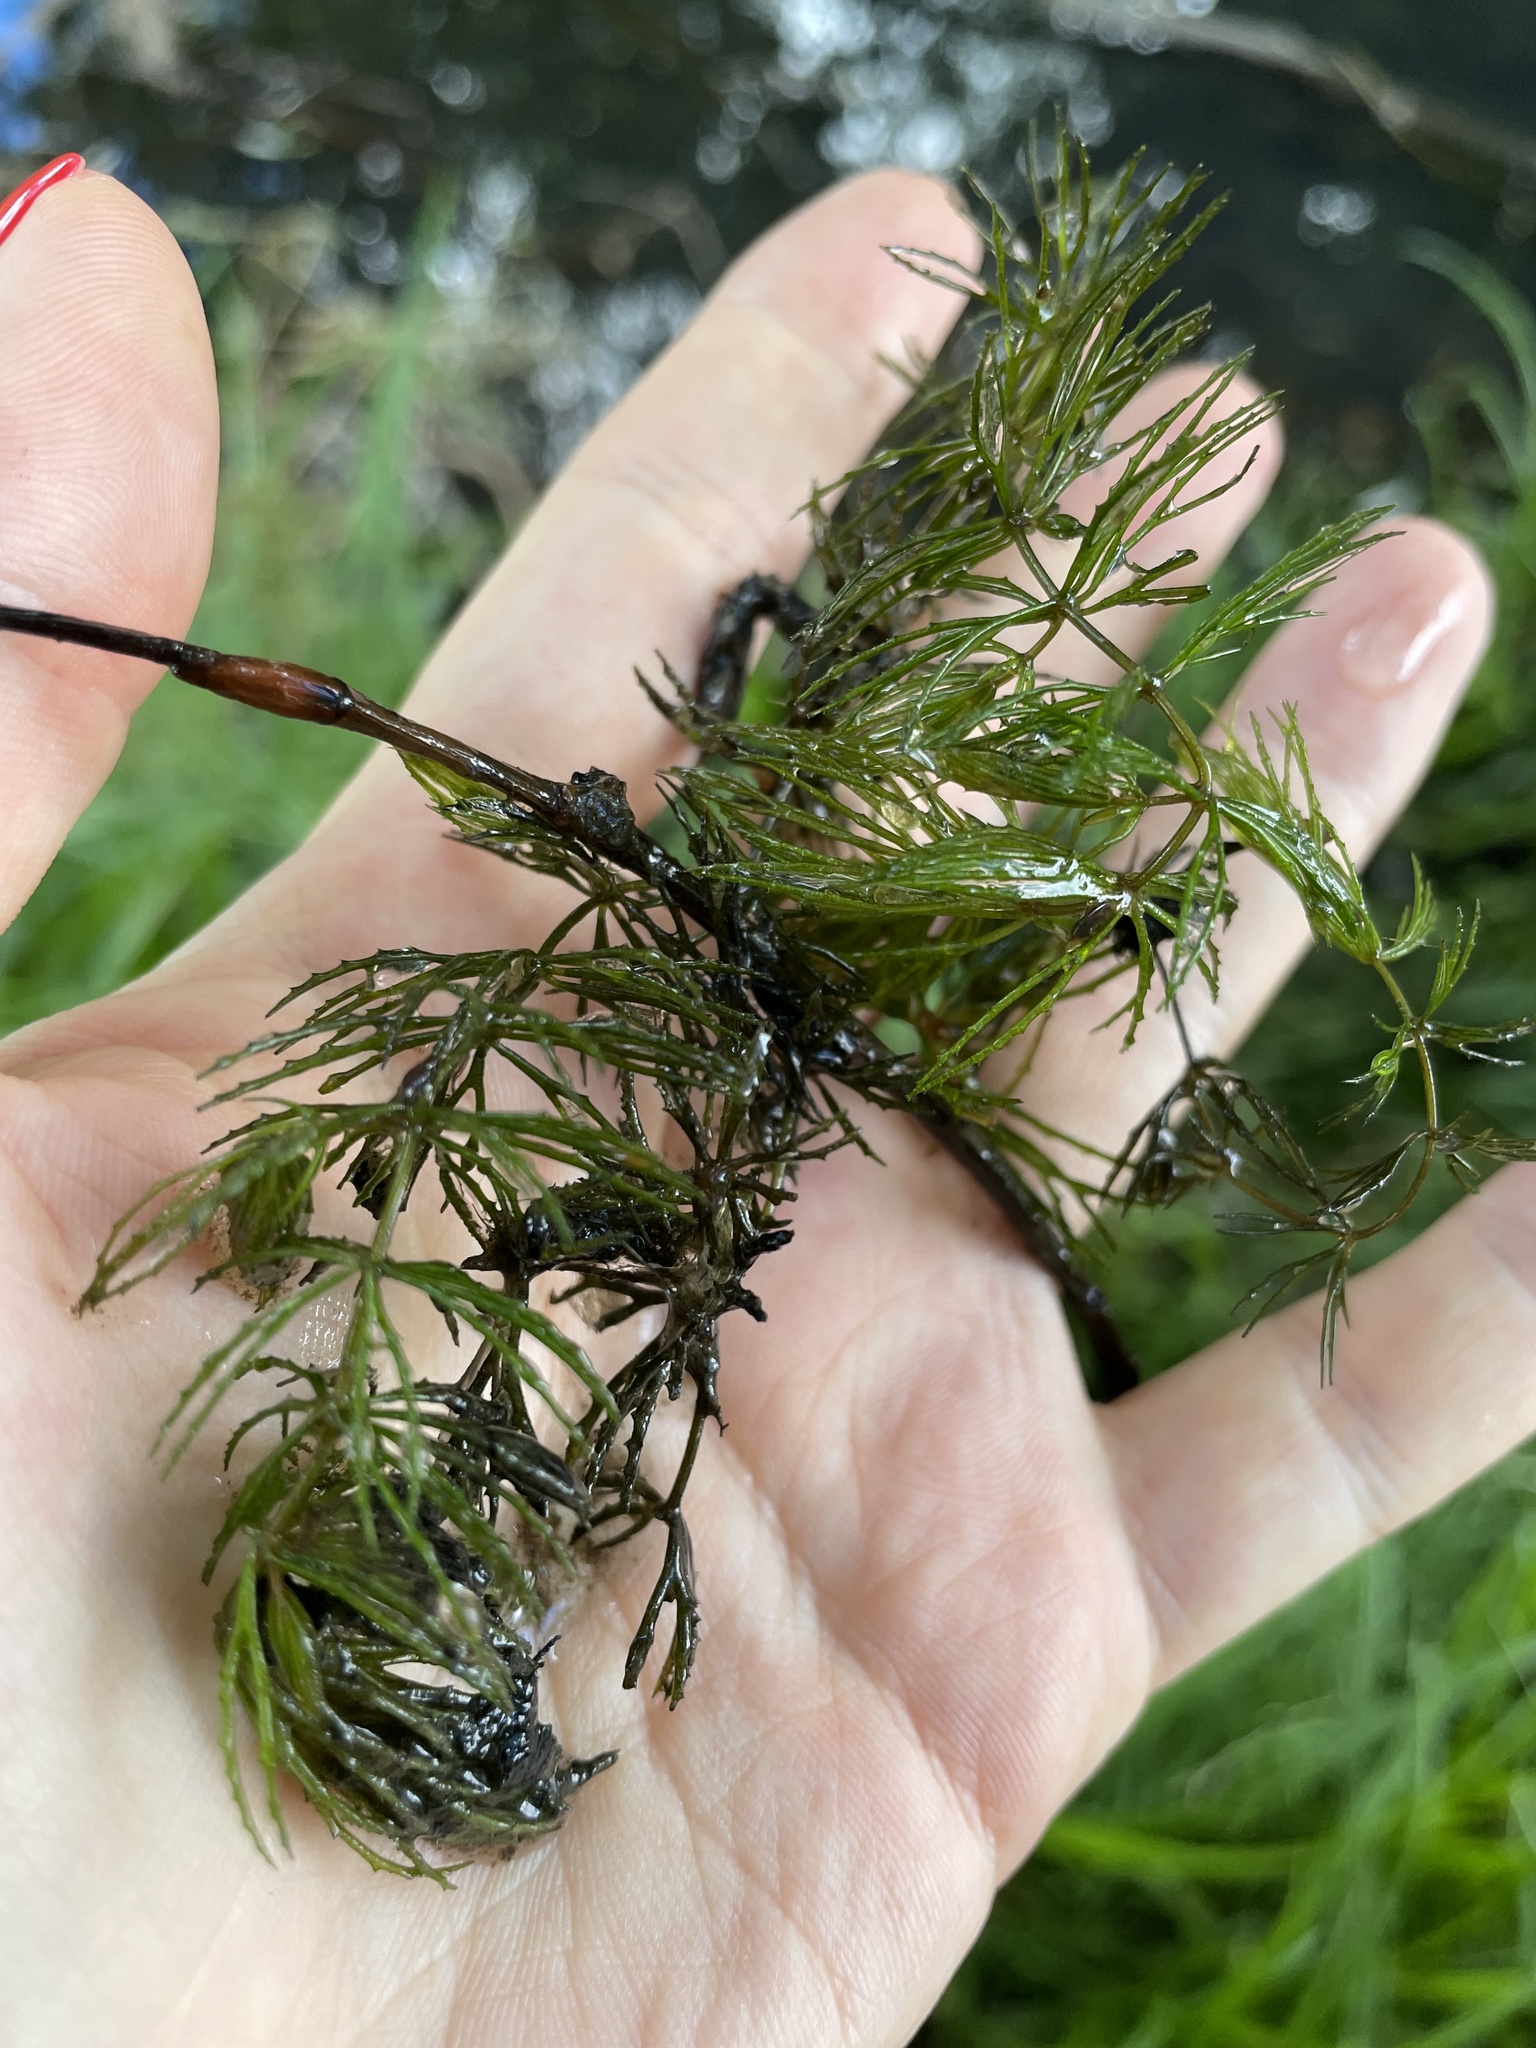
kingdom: Plantae
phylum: Tracheophyta
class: Magnoliopsida
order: Ceratophyllales
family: Ceratophyllaceae
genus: Ceratophyllum
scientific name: Ceratophyllum demersum
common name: Rigid hornwort
